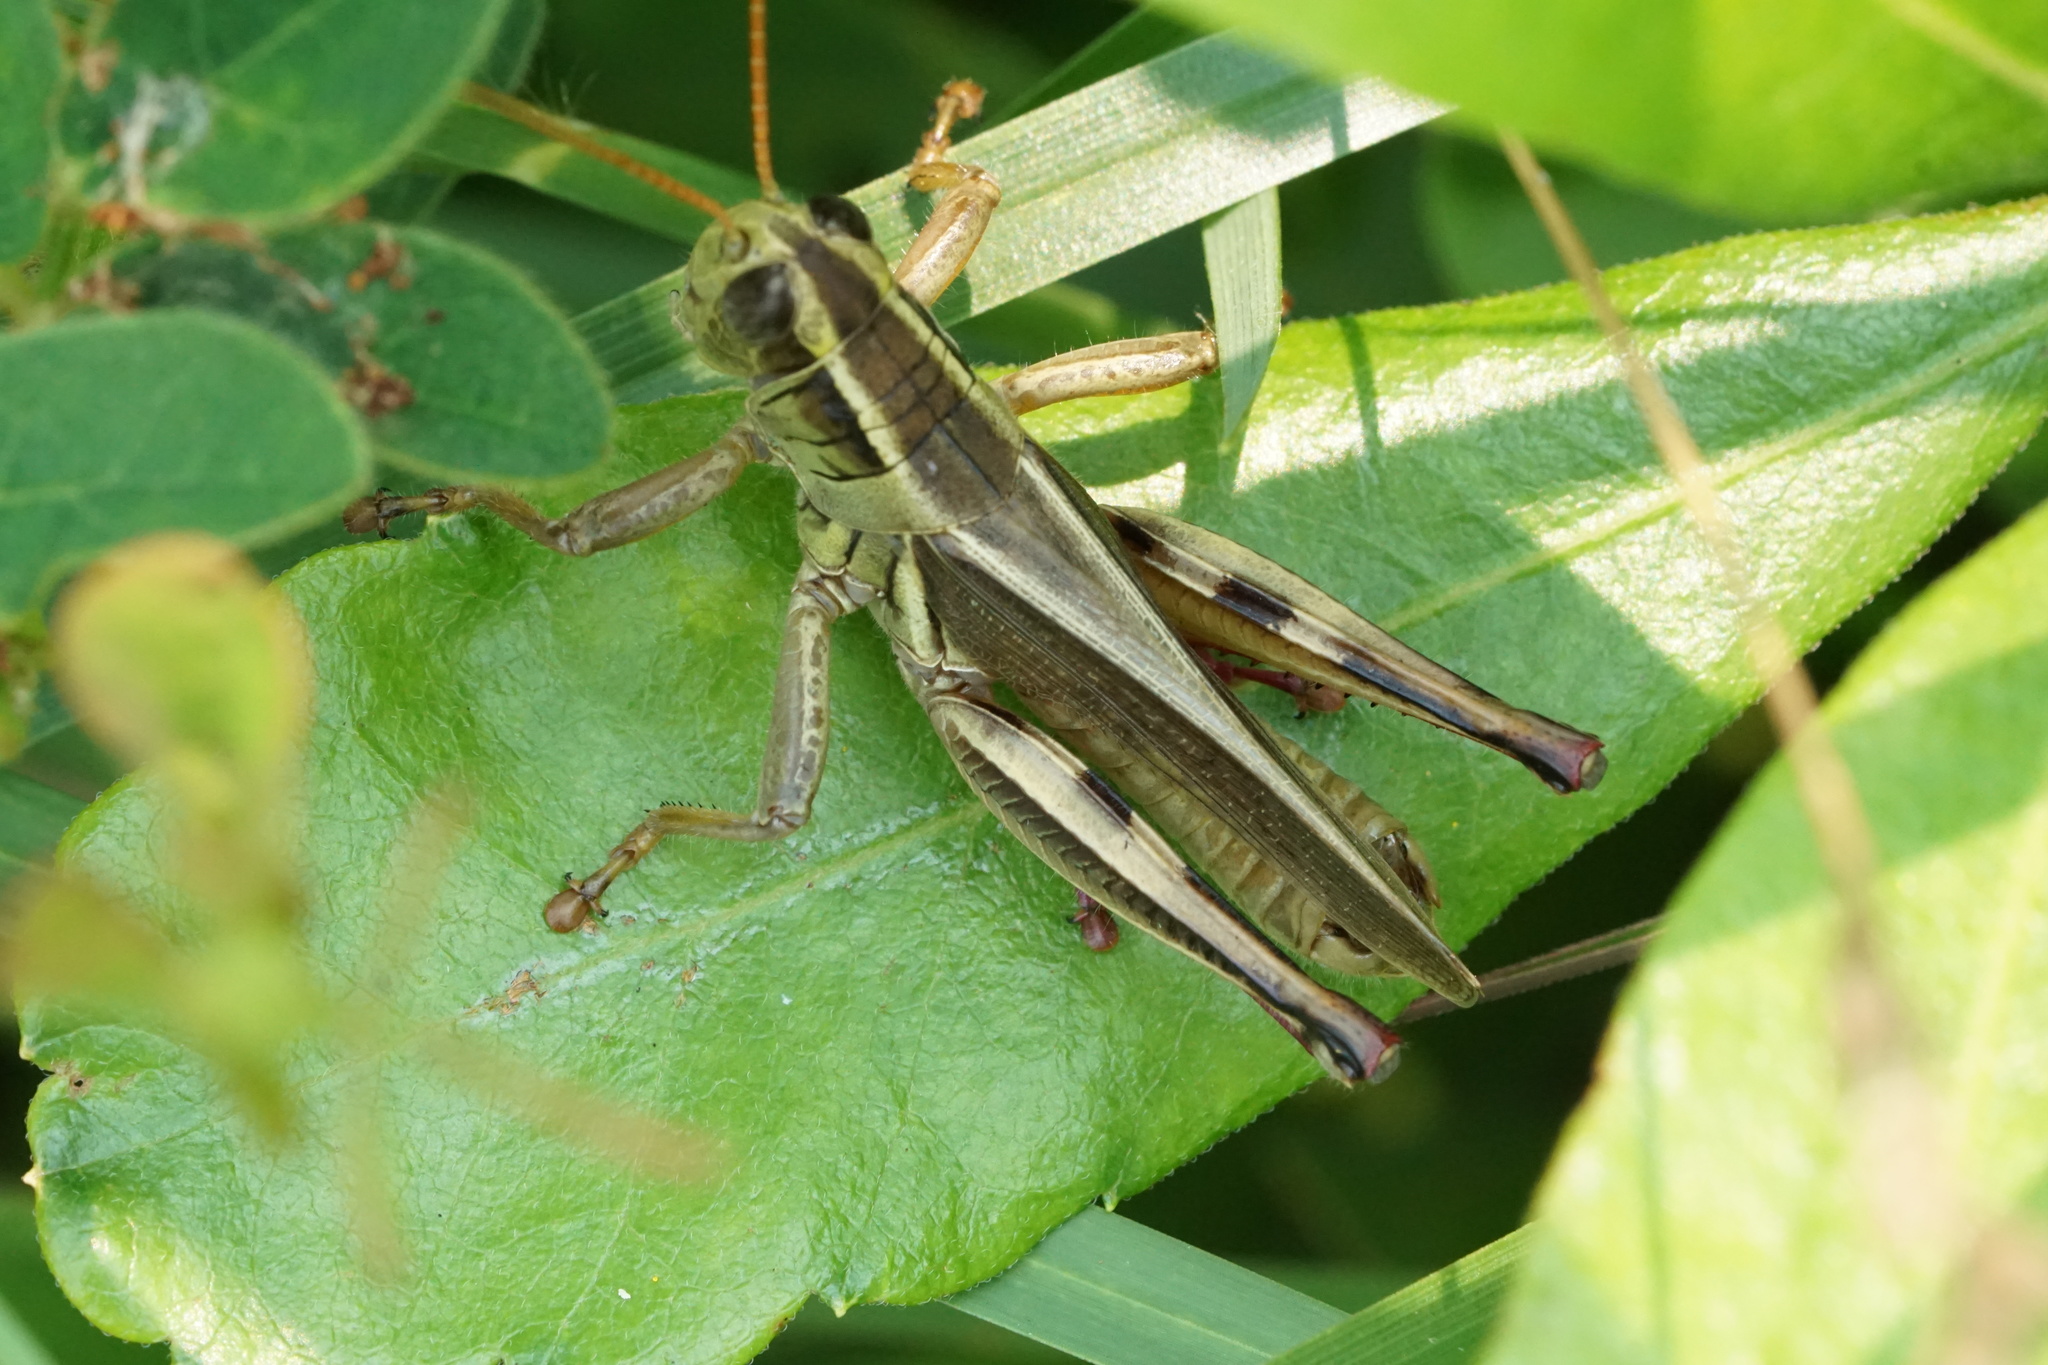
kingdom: Animalia
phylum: Arthropoda
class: Insecta
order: Orthoptera
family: Acrididae
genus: Melanoplus
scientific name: Melanoplus bivittatus
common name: Two-striped grasshopper
